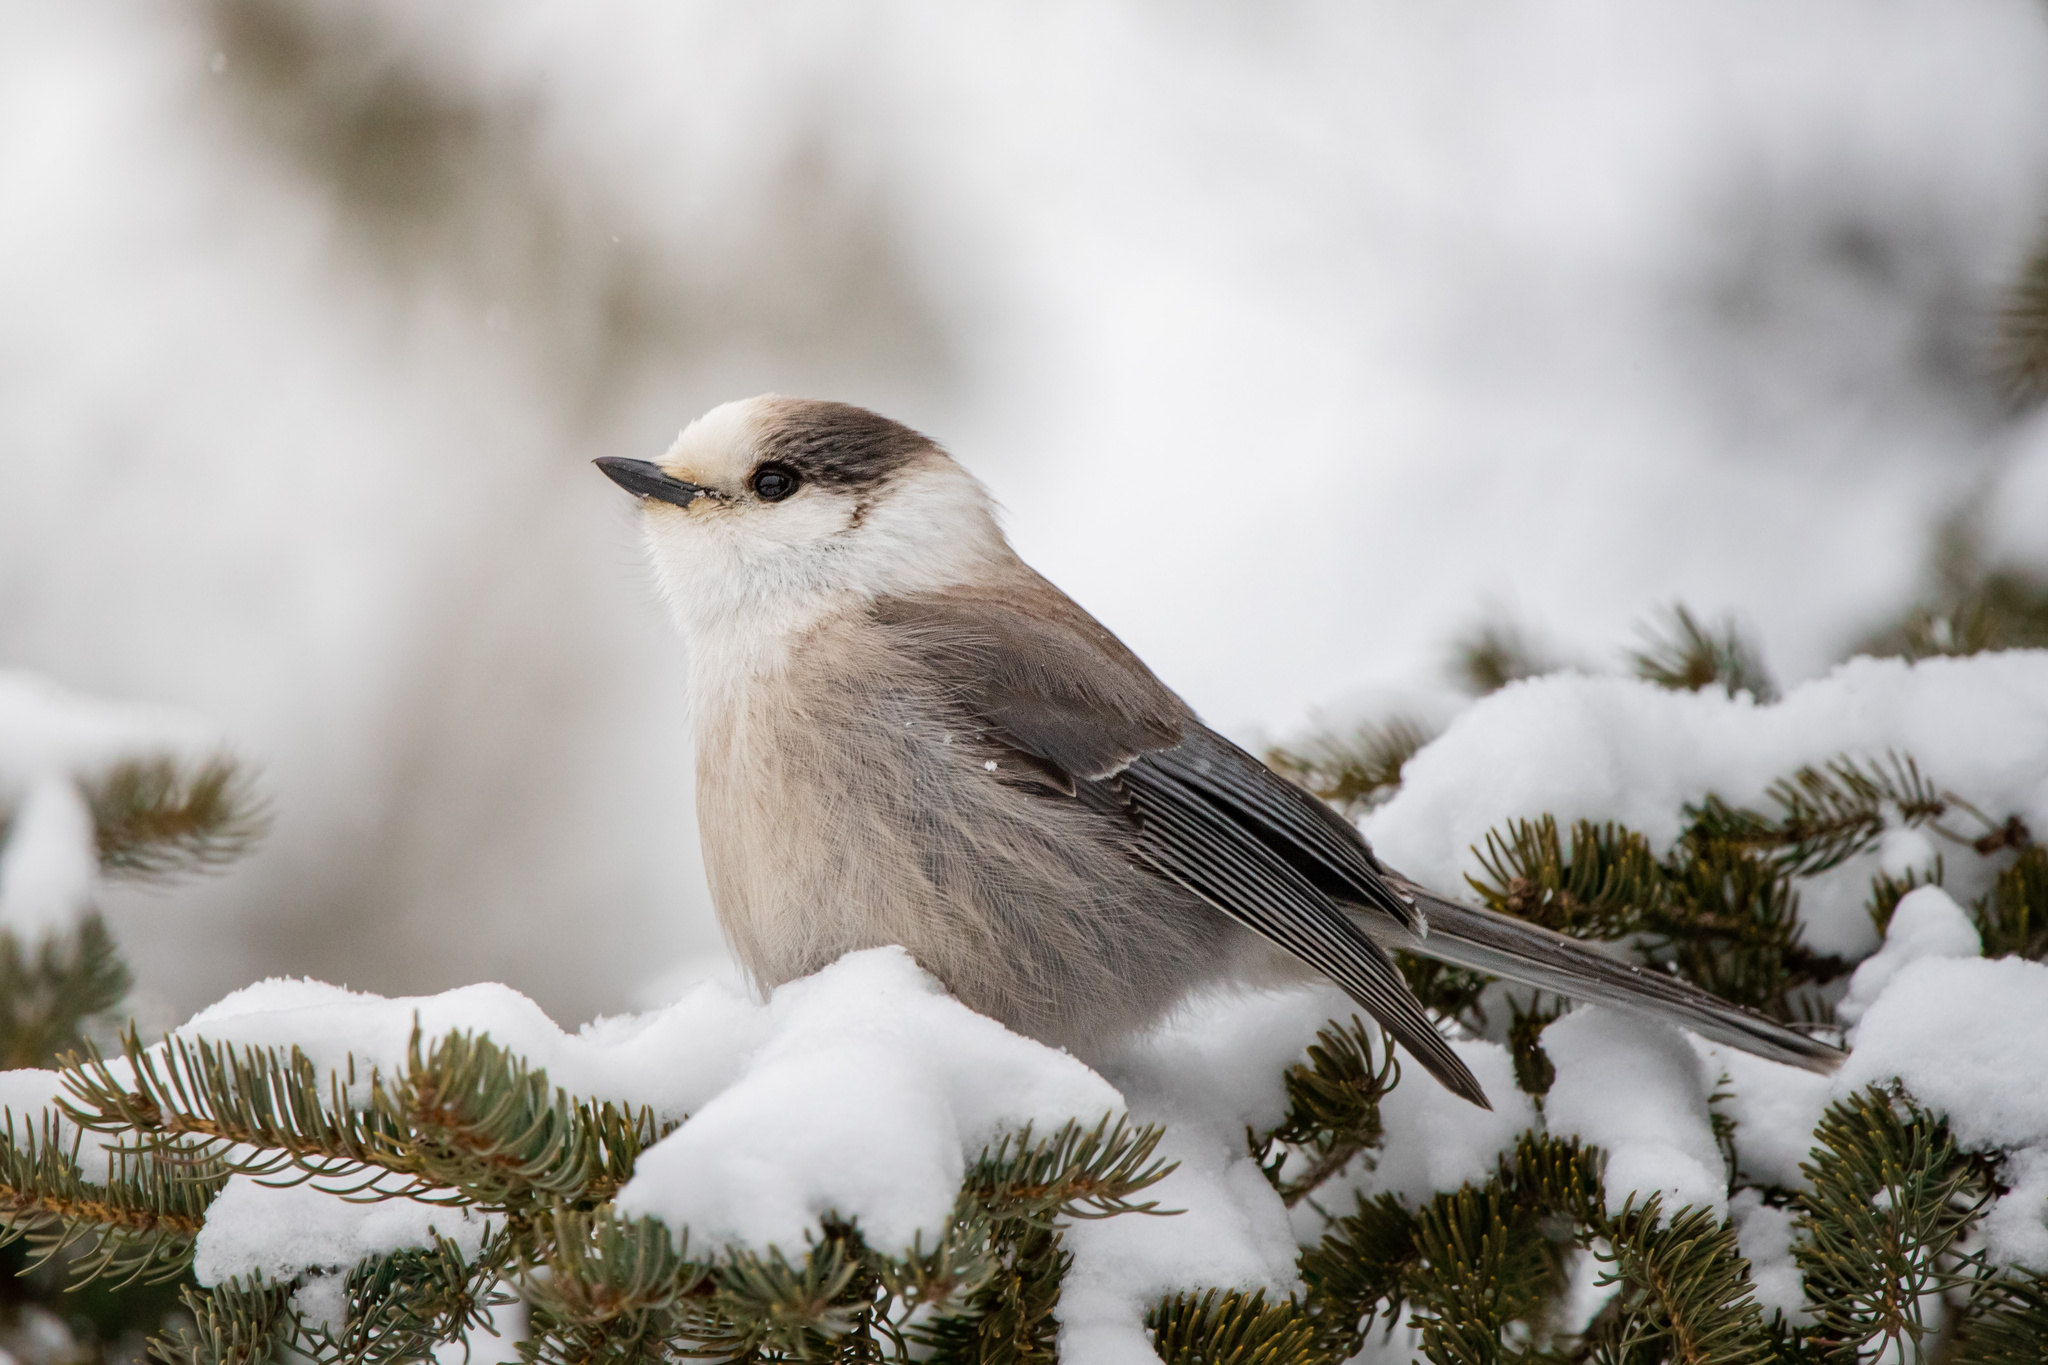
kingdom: Animalia
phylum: Chordata
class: Aves
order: Passeriformes
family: Corvidae
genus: Perisoreus
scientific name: Perisoreus canadensis
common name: Gray jay
